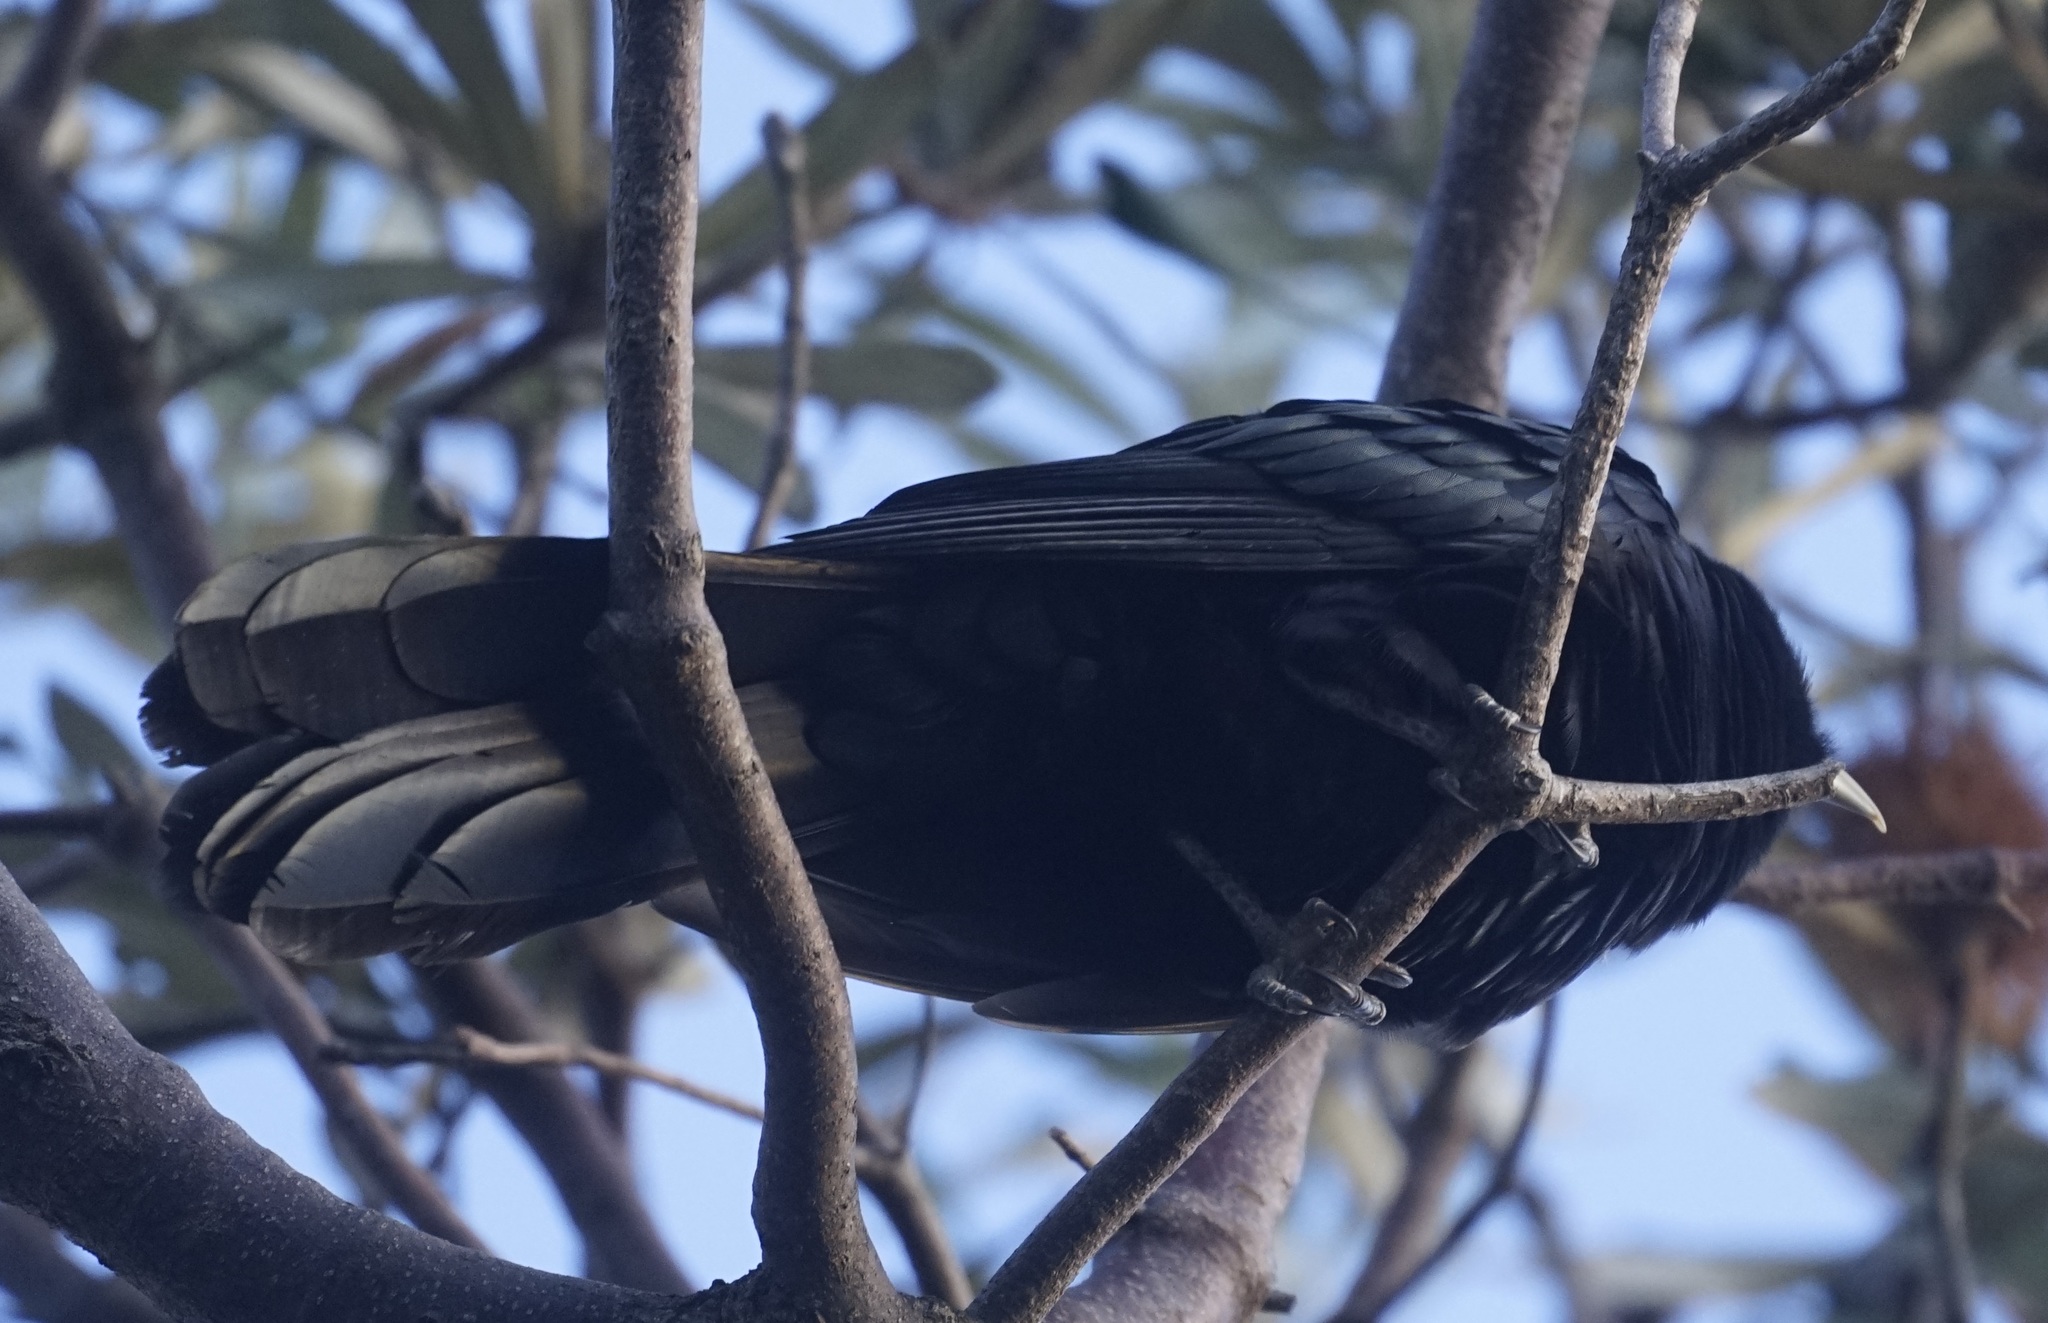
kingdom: Animalia
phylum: Chordata
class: Aves
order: Cuculiformes
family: Cuculidae
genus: Eudynamys
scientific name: Eudynamys orientalis
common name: Pacific koel
